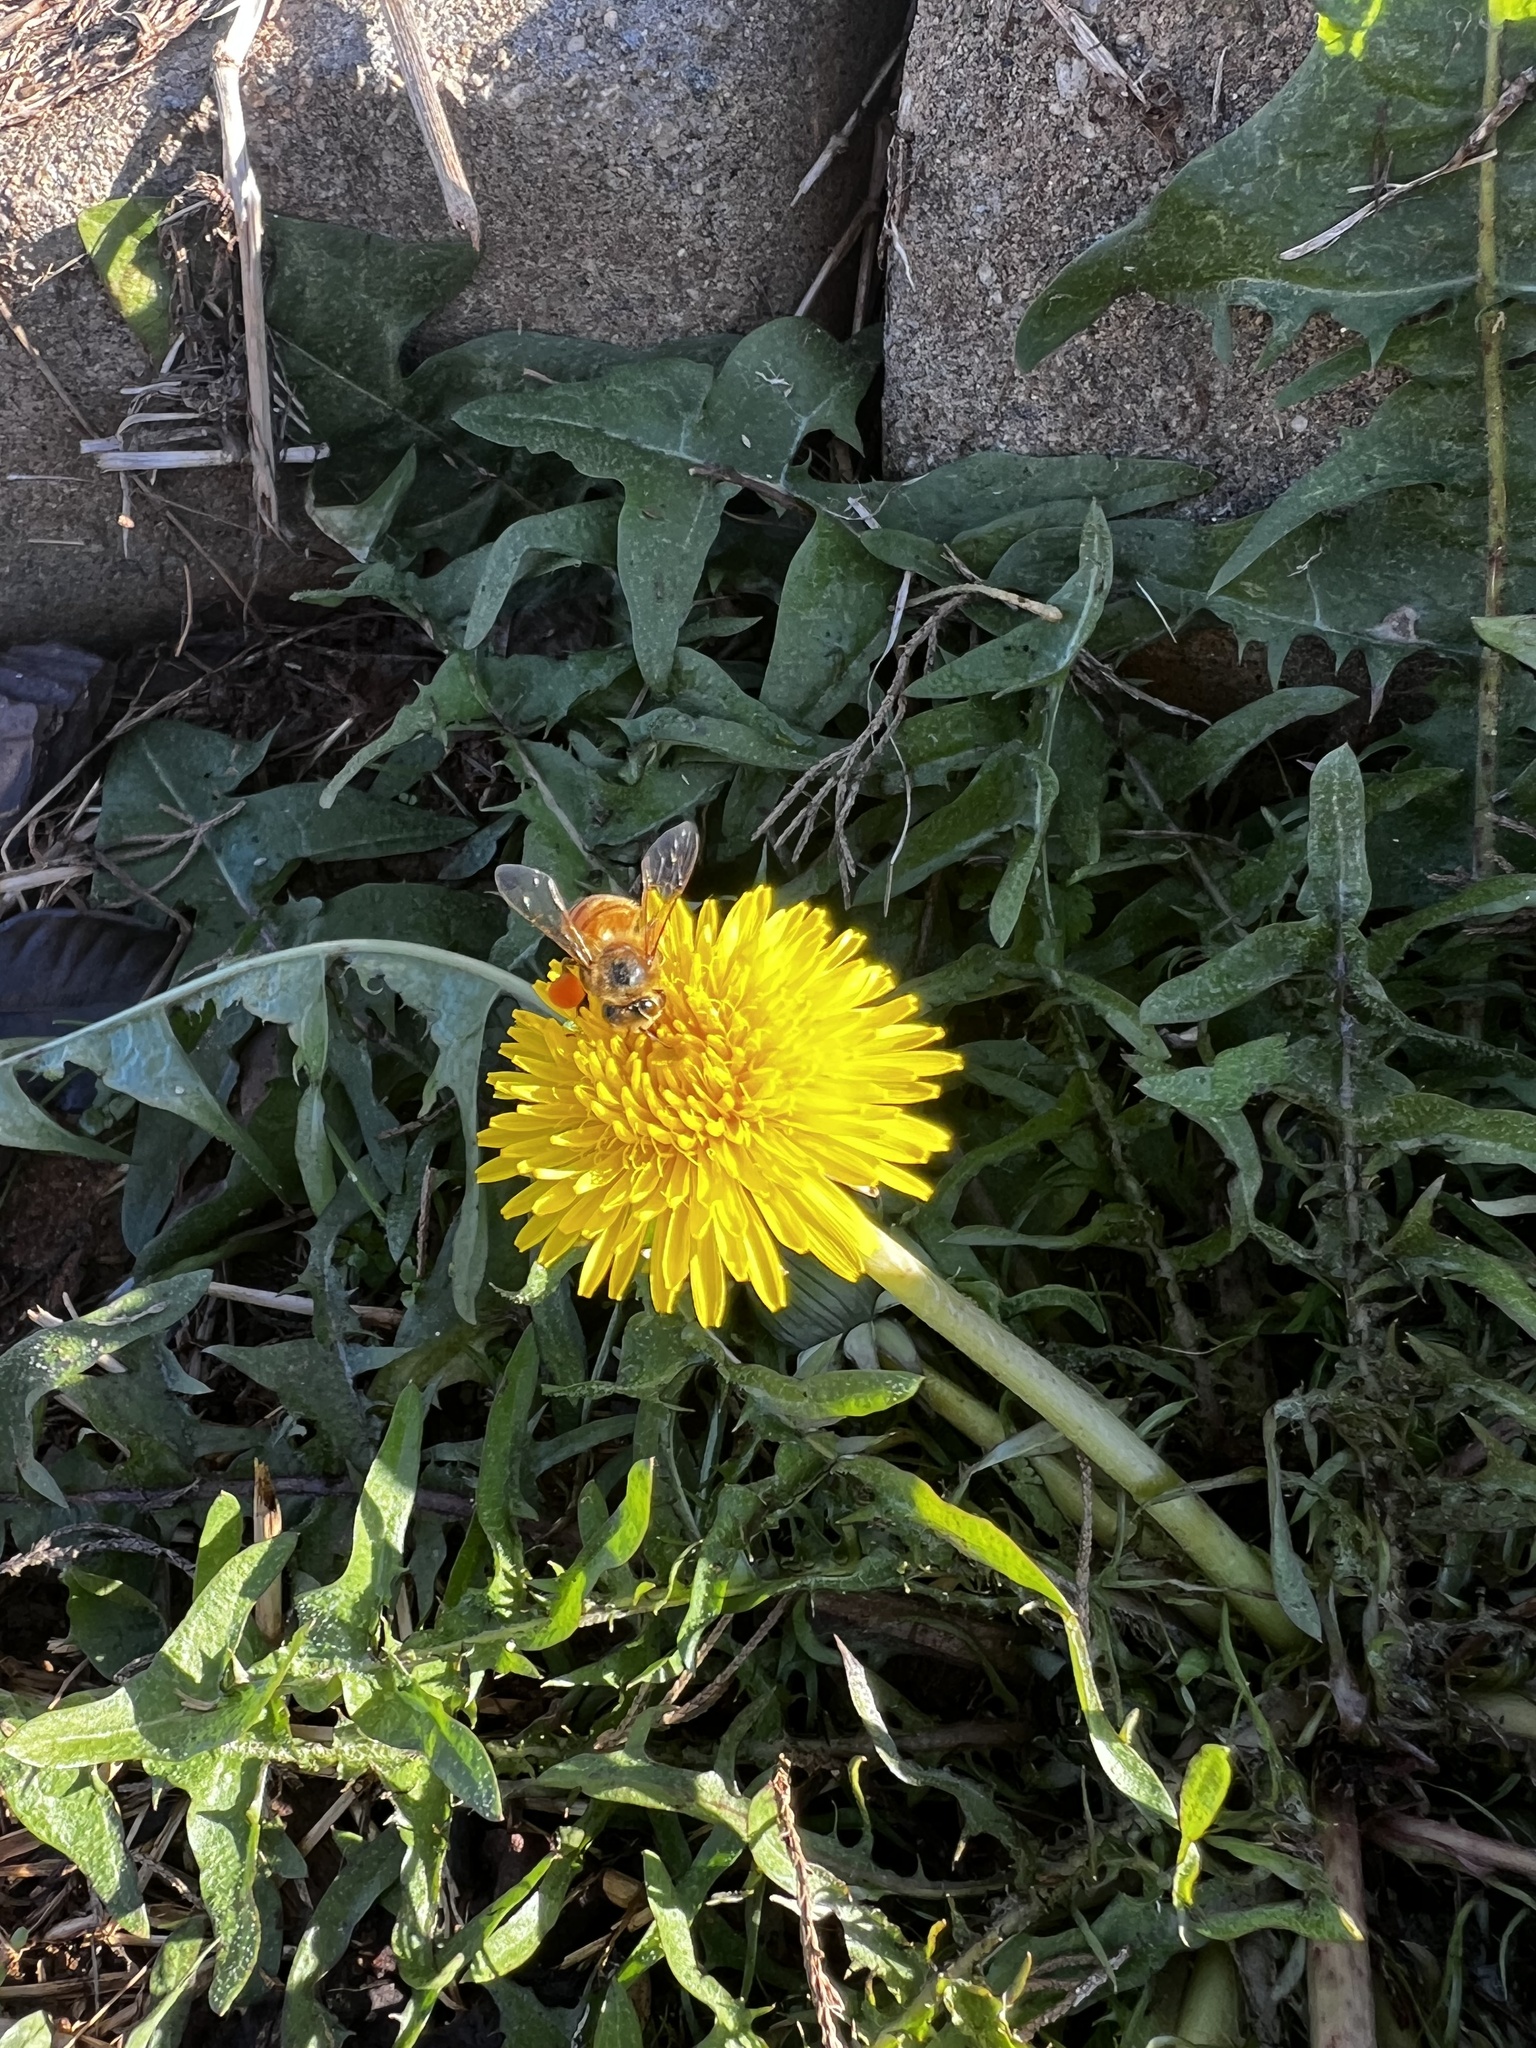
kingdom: Animalia
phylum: Arthropoda
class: Insecta
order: Hymenoptera
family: Apidae
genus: Apis
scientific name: Apis mellifera
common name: Honey bee
